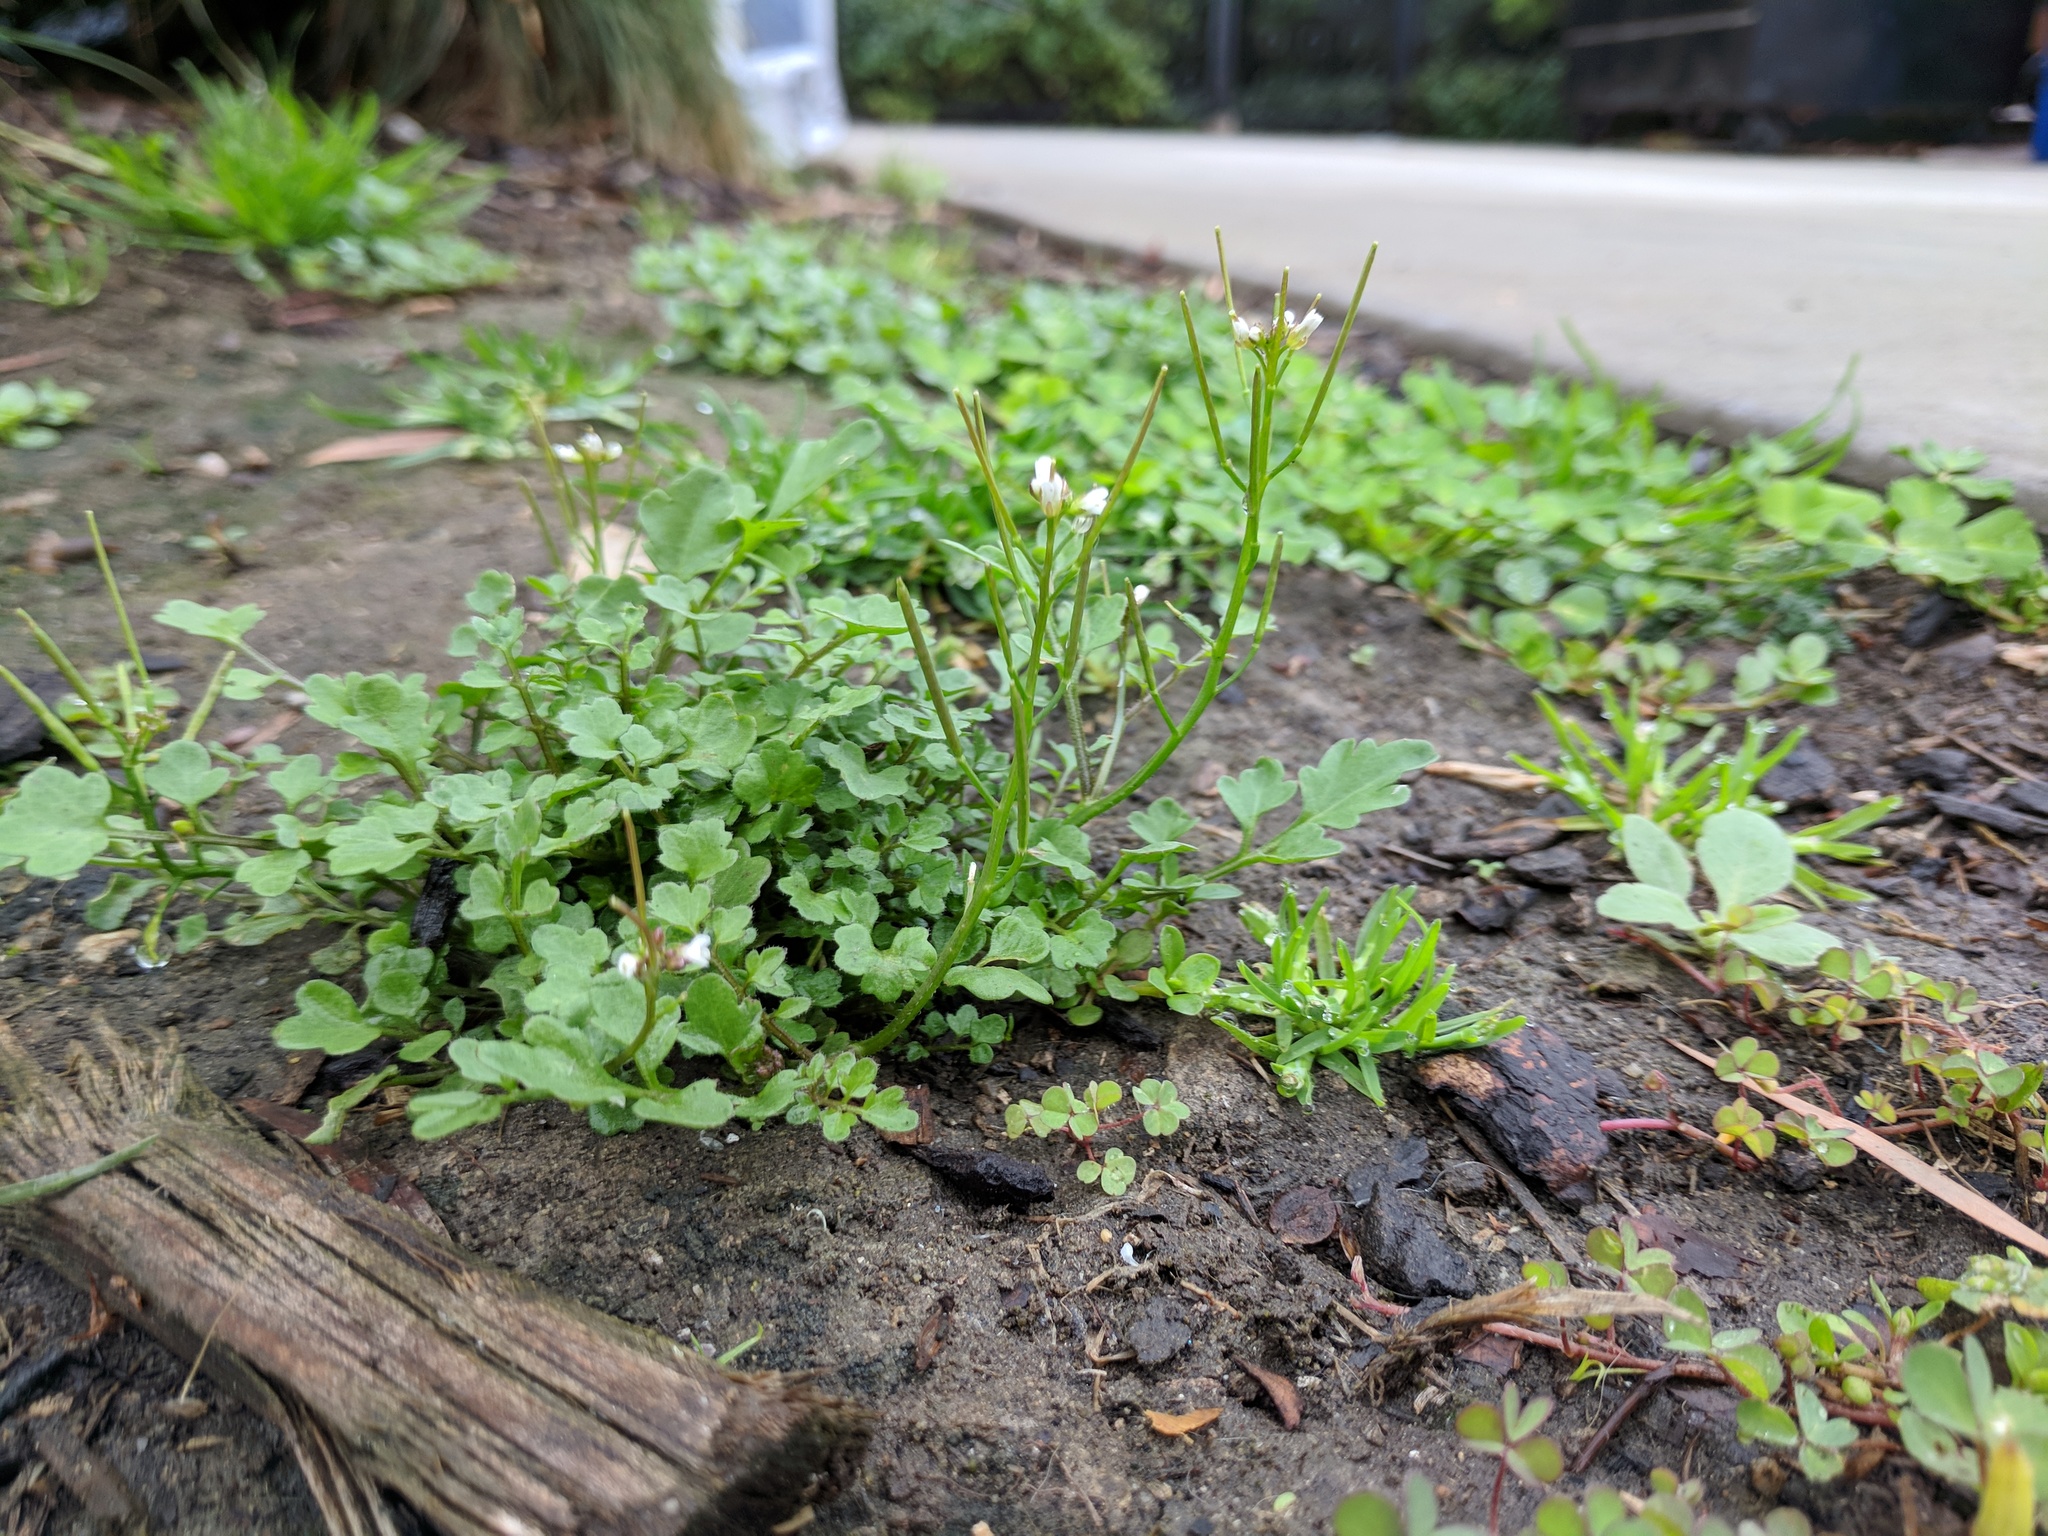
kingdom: Plantae
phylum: Tracheophyta
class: Magnoliopsida
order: Brassicales
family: Brassicaceae
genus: Cardamine
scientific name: Cardamine occulta
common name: Asian wavy bittercress
